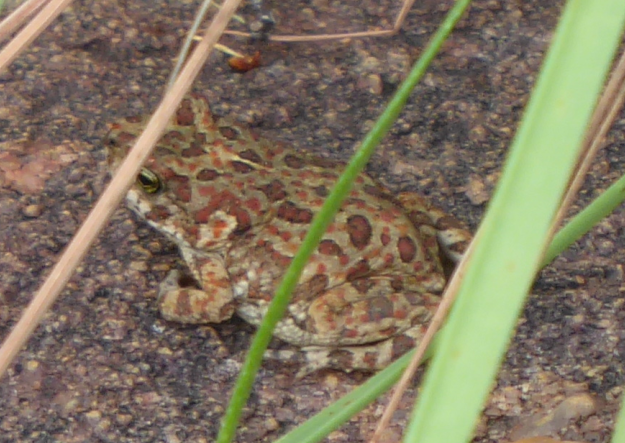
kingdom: Animalia
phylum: Chordata
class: Amphibia
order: Anura
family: Bufonidae
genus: Poyntonophrynus
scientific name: Poyntonophrynus fenoulheti
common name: Fenoulhet's toad
